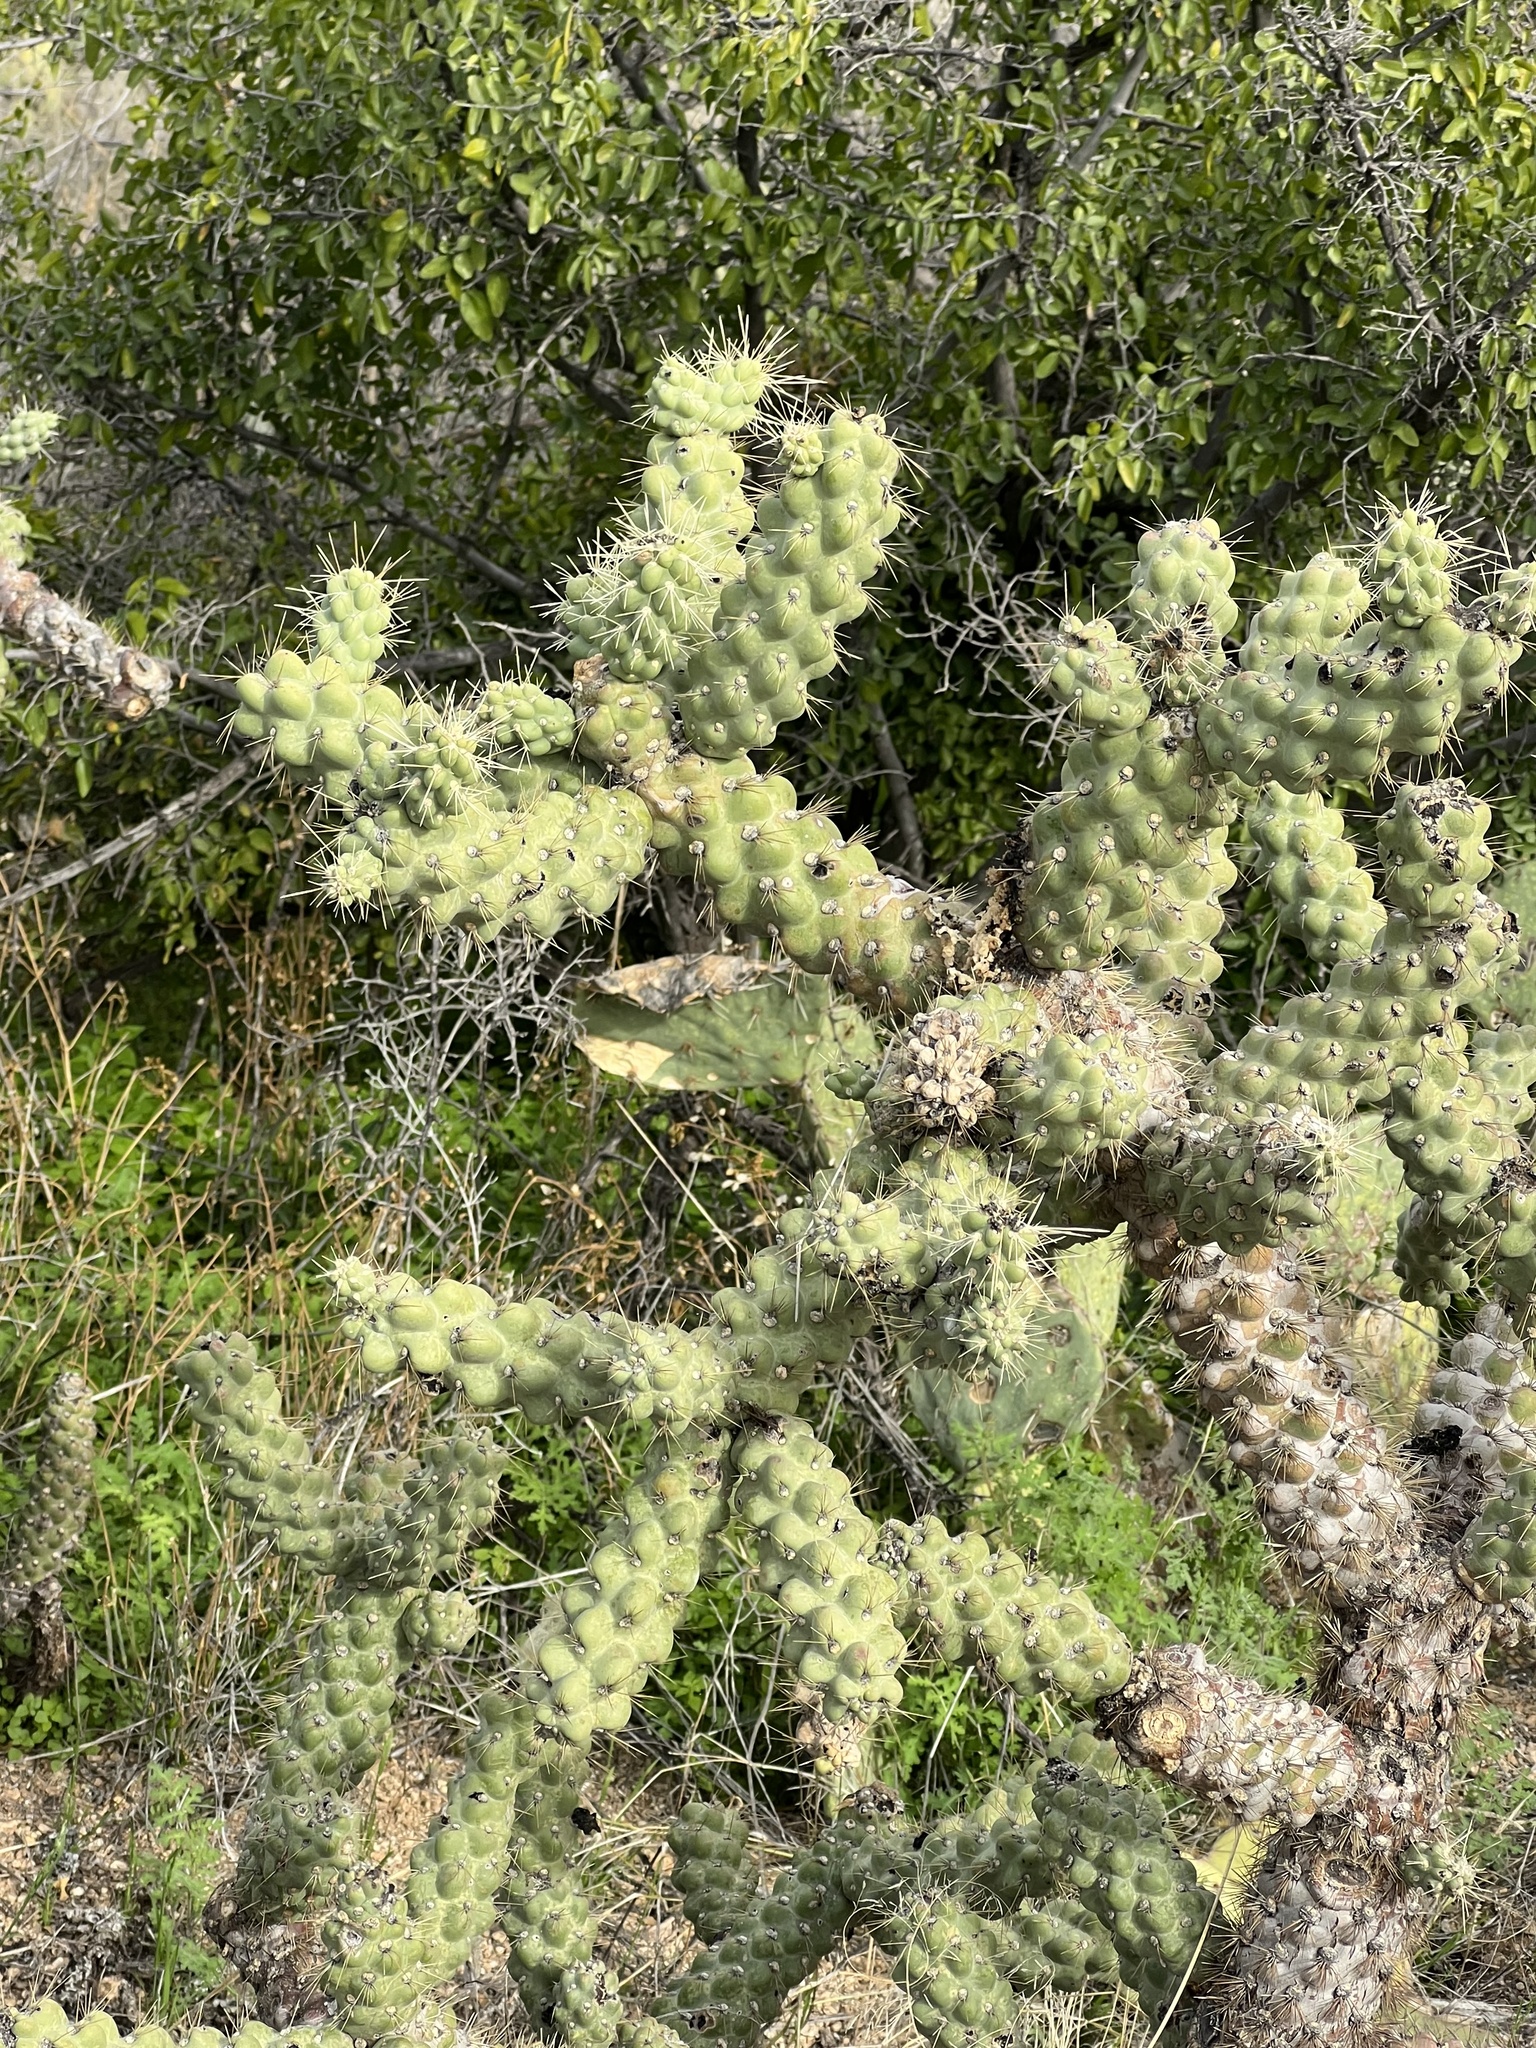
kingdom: Plantae
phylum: Tracheophyta
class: Magnoliopsida
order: Caryophyllales
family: Cactaceae
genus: Cylindropuntia
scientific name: Cylindropuntia fulgida
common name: Jumping cholla
